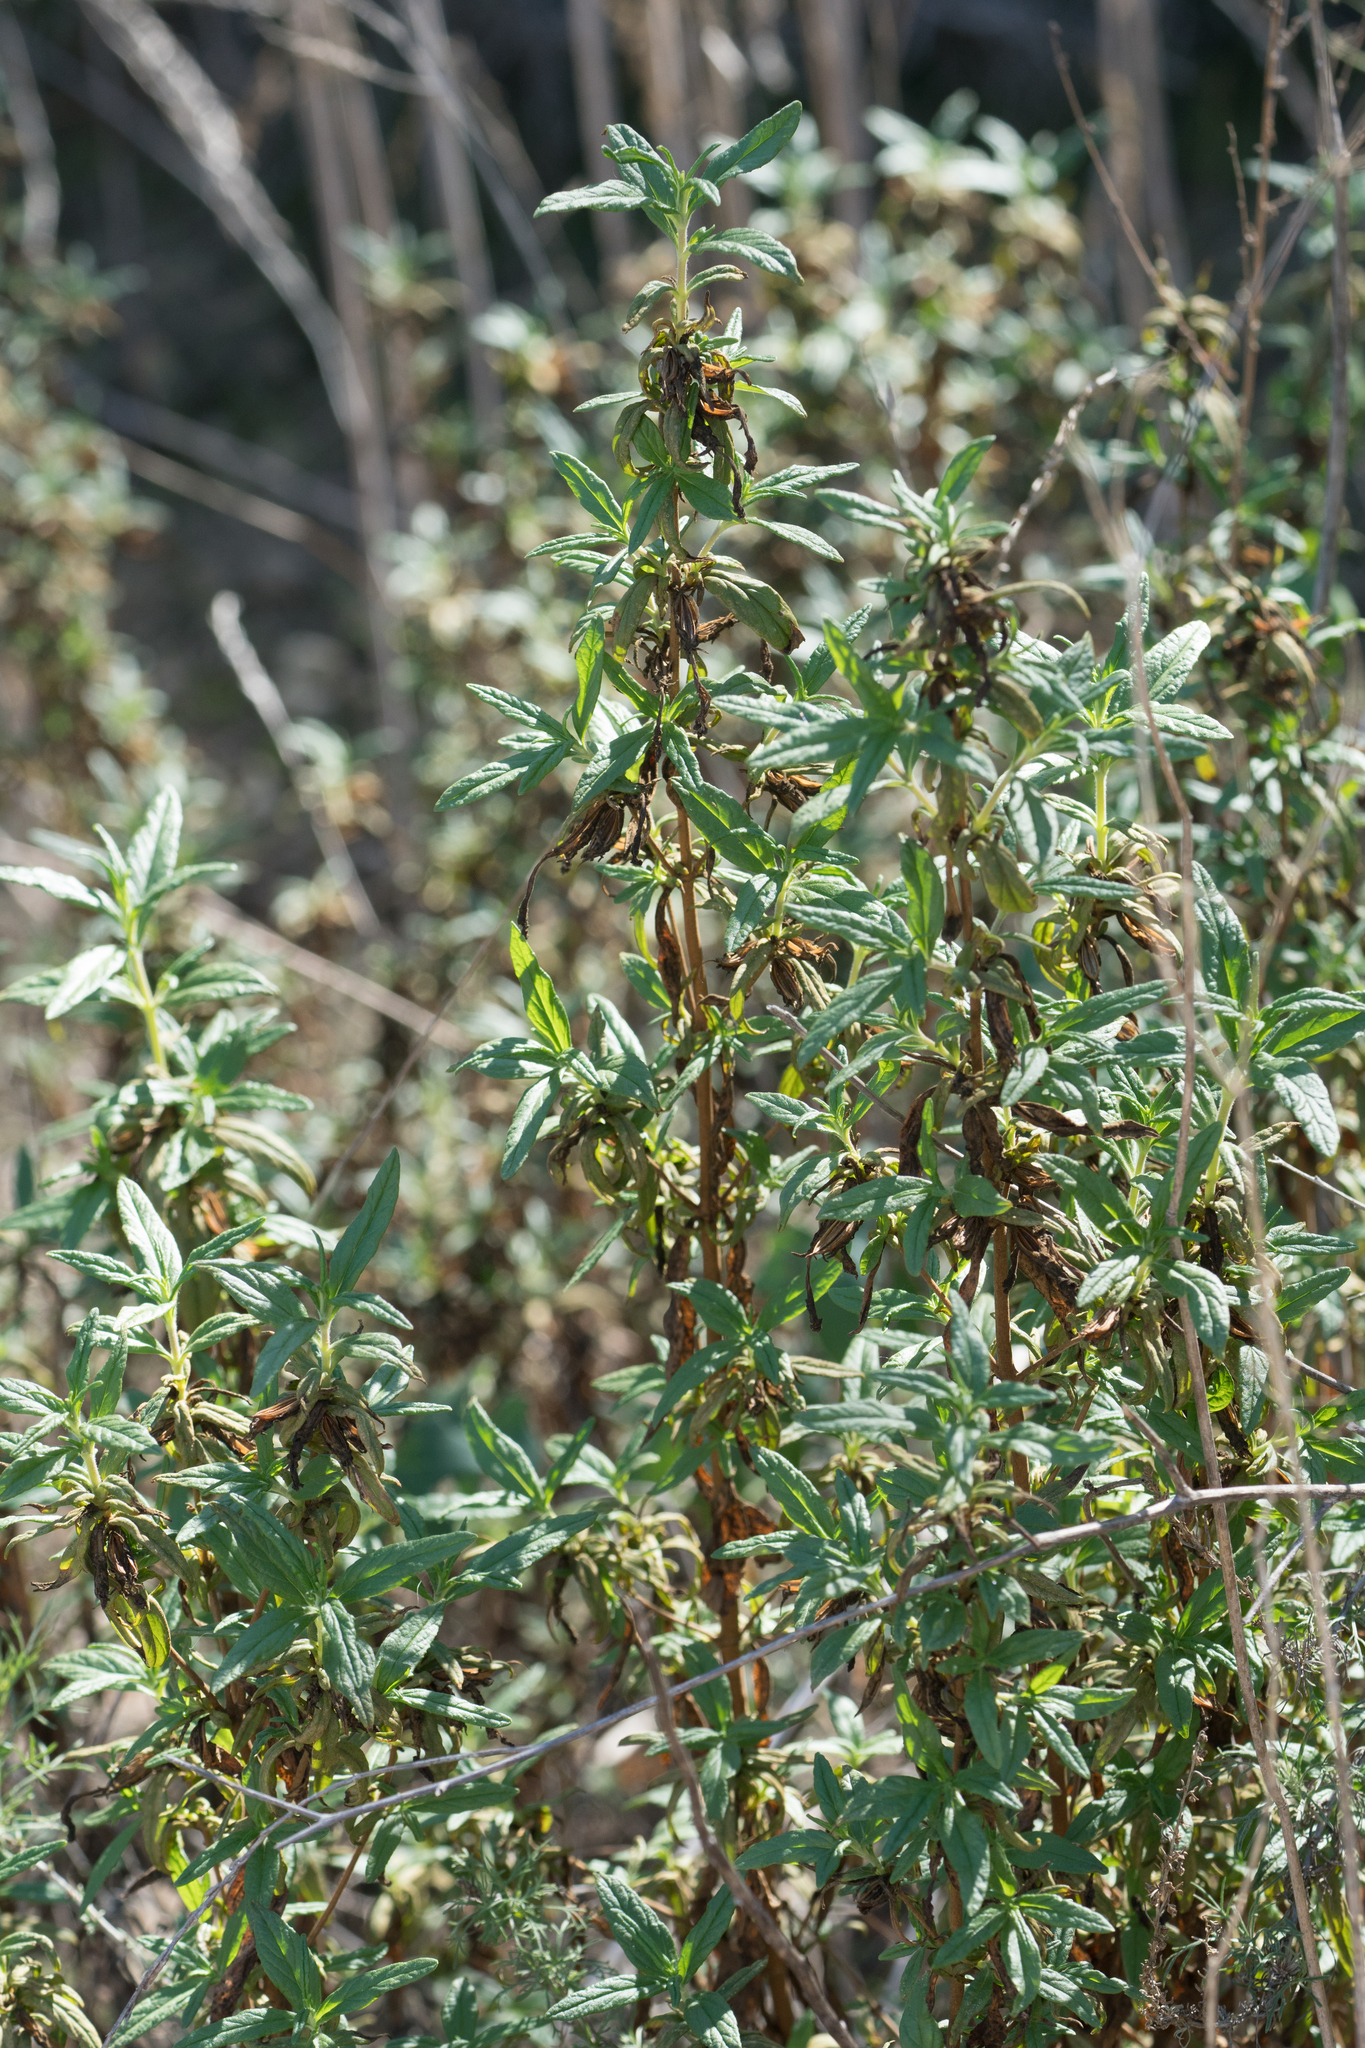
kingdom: Plantae
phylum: Tracheophyta
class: Magnoliopsida
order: Lamiales
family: Phrymaceae
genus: Diplacus
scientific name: Diplacus longiflorus
